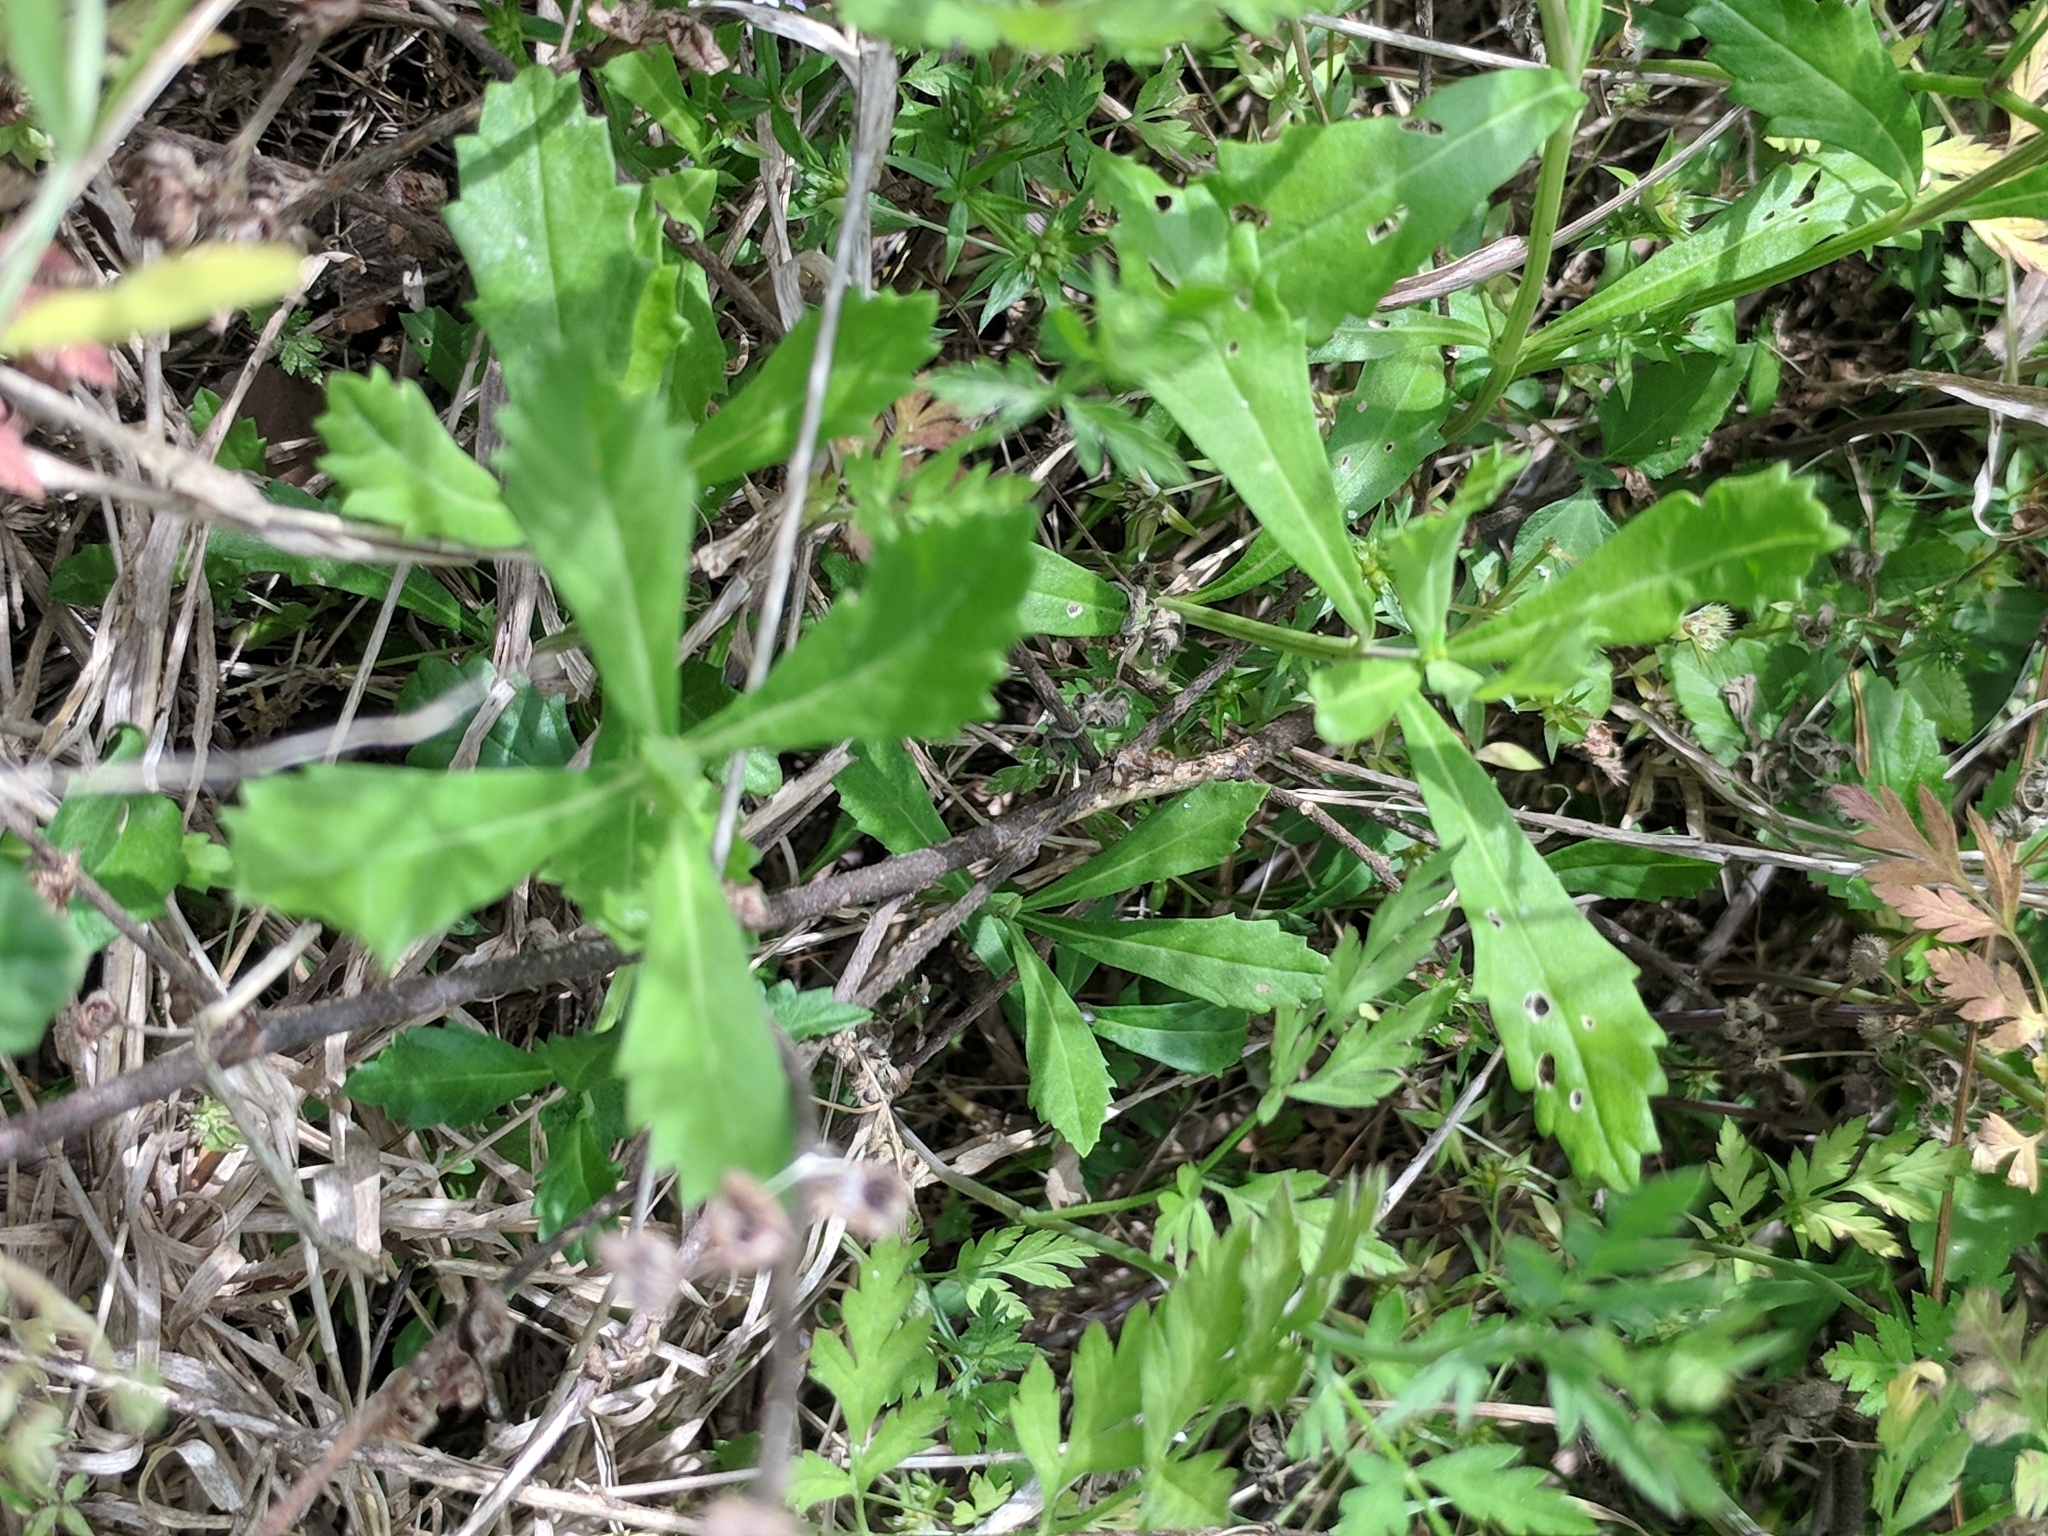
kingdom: Plantae
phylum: Tracheophyta
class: Magnoliopsida
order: Lamiales
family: Verbenaceae
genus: Phyla
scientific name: Phyla nodiflora
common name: Frogfruit
